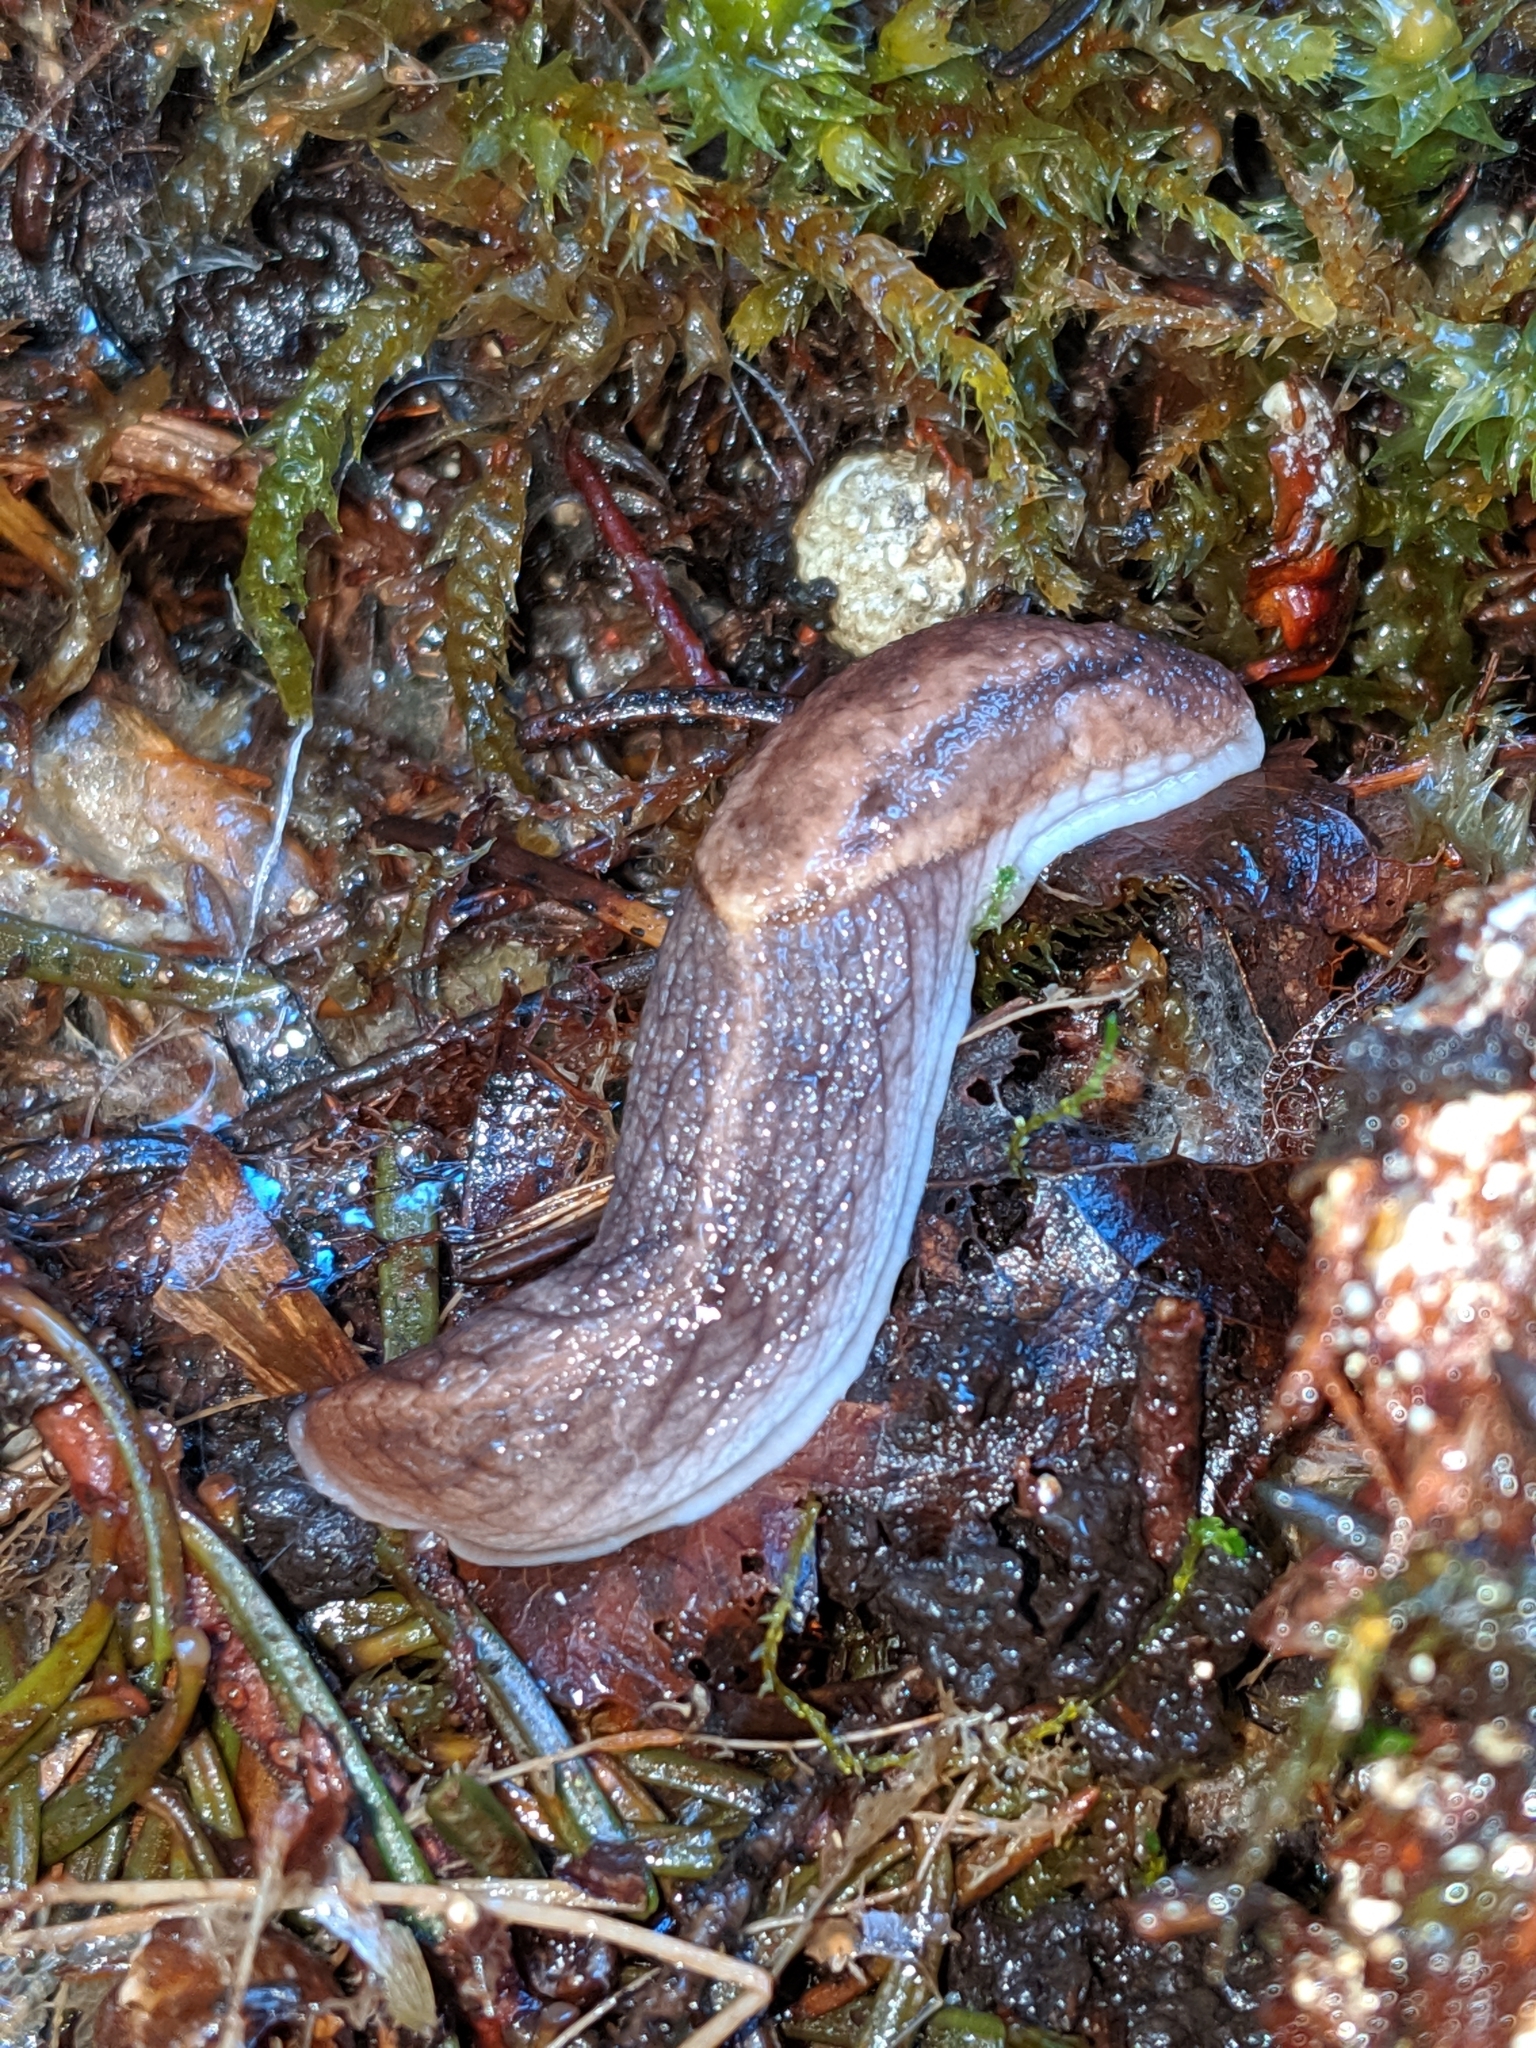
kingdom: Animalia
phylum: Mollusca
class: Gastropoda
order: Stylommatophora
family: Ariolimacidae
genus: Prophysaon
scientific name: Prophysaon andersonii
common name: Reticulate taildropper
